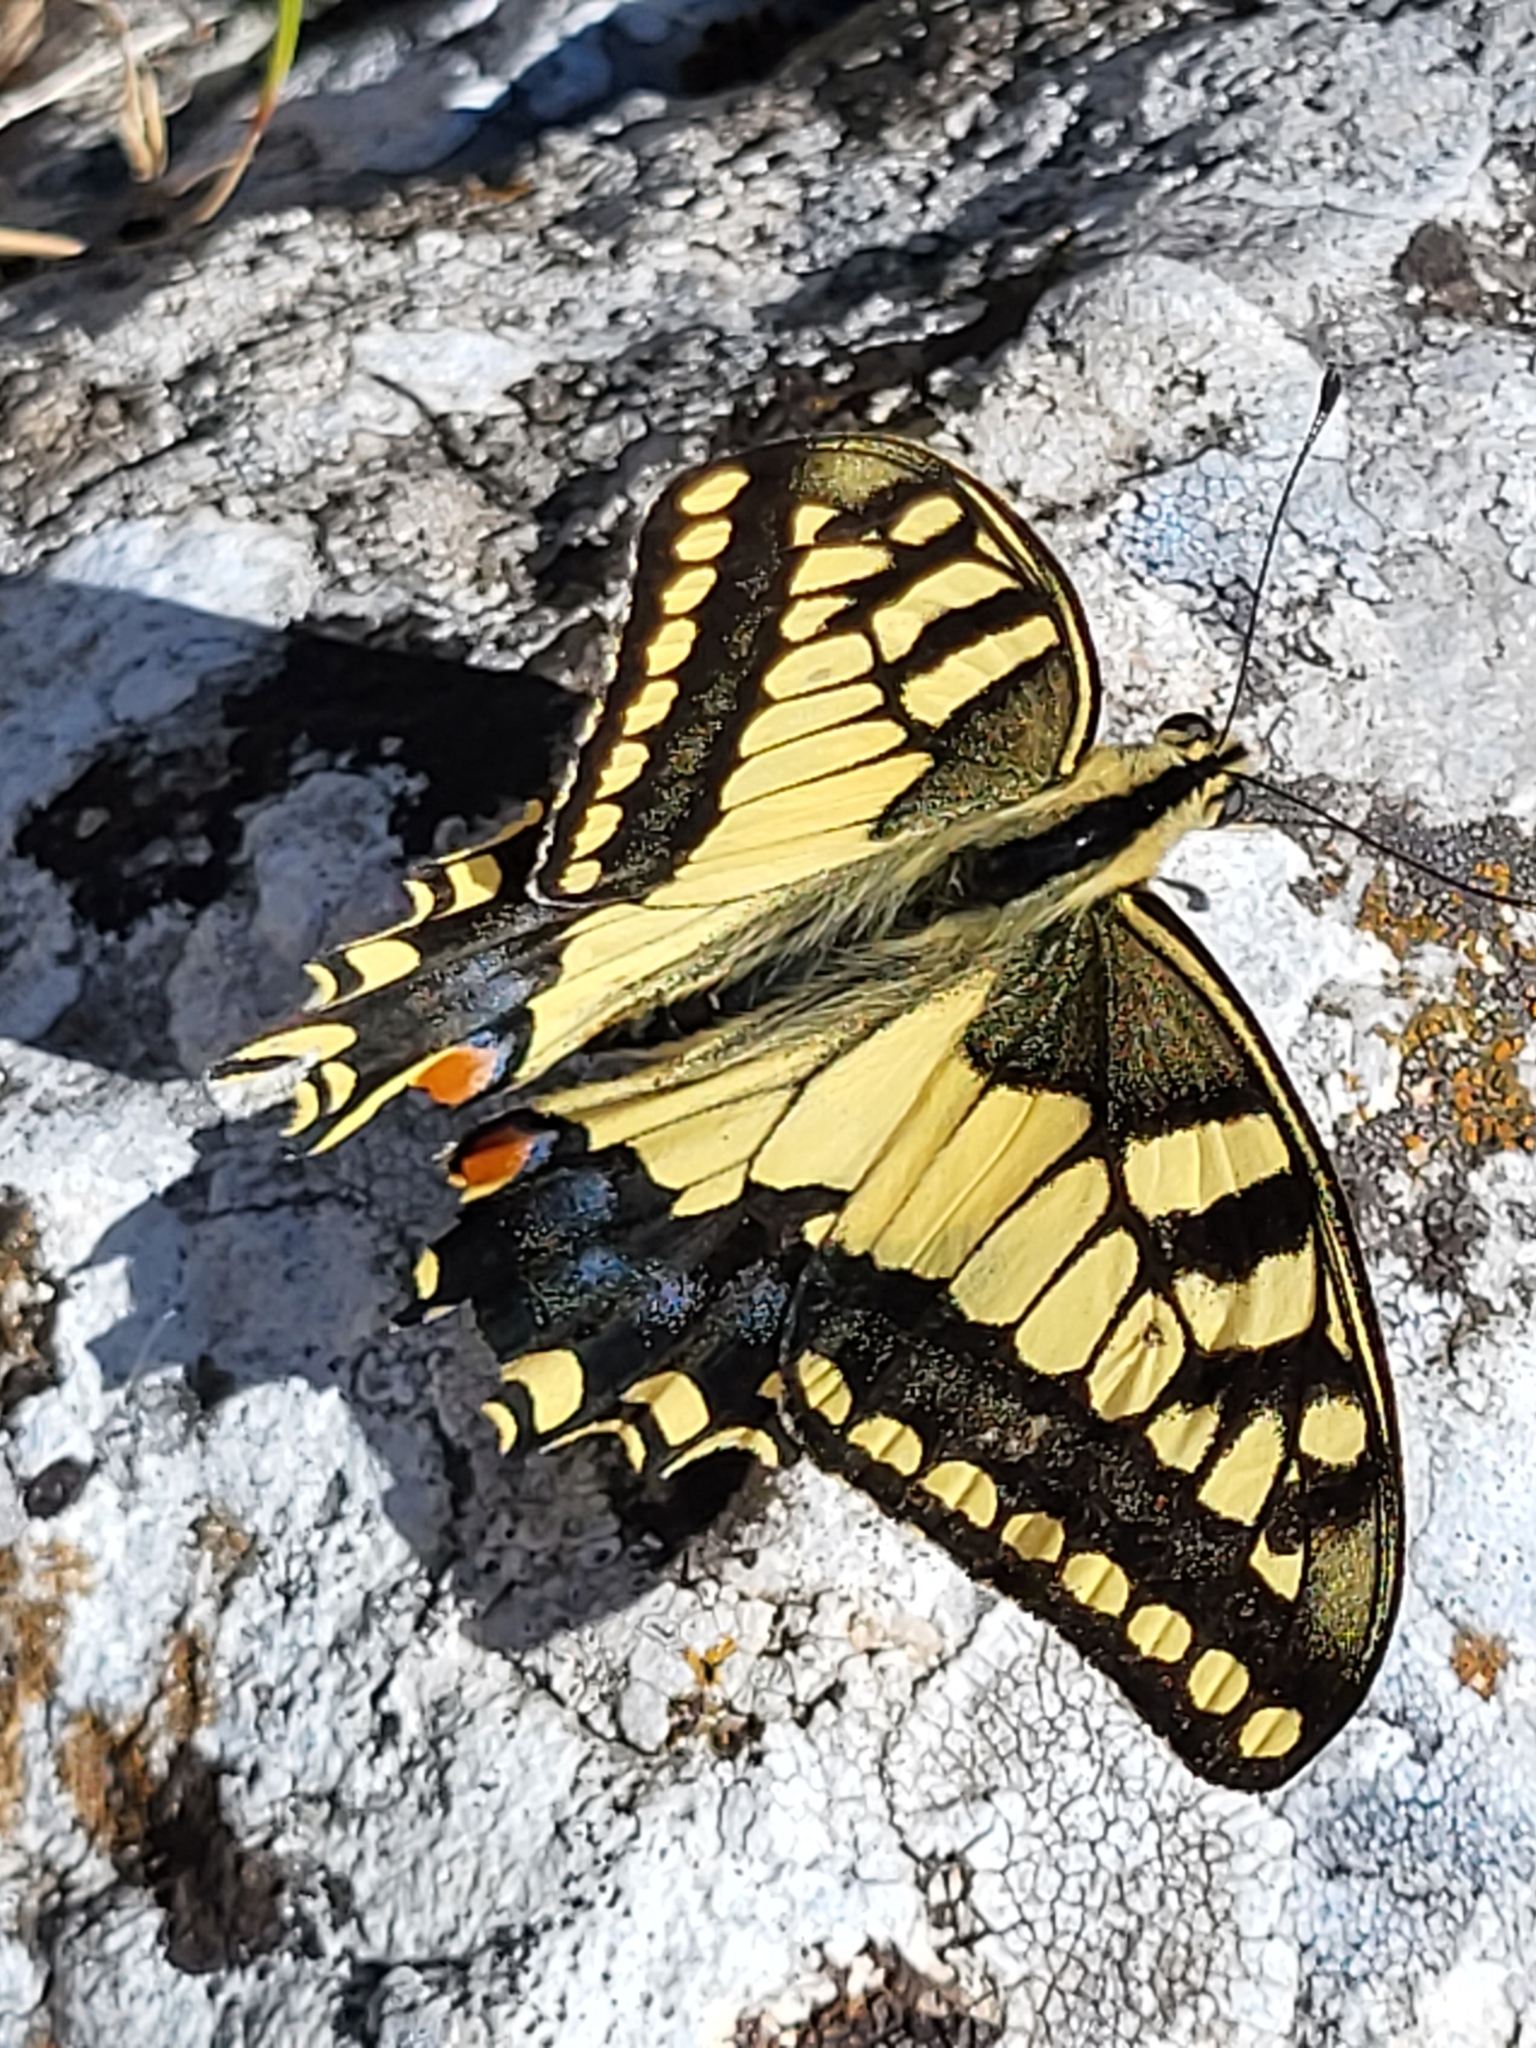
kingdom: Animalia
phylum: Arthropoda
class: Insecta
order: Lepidoptera
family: Papilionidae
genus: Papilio
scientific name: Papilio machaon
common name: Swallowtail
